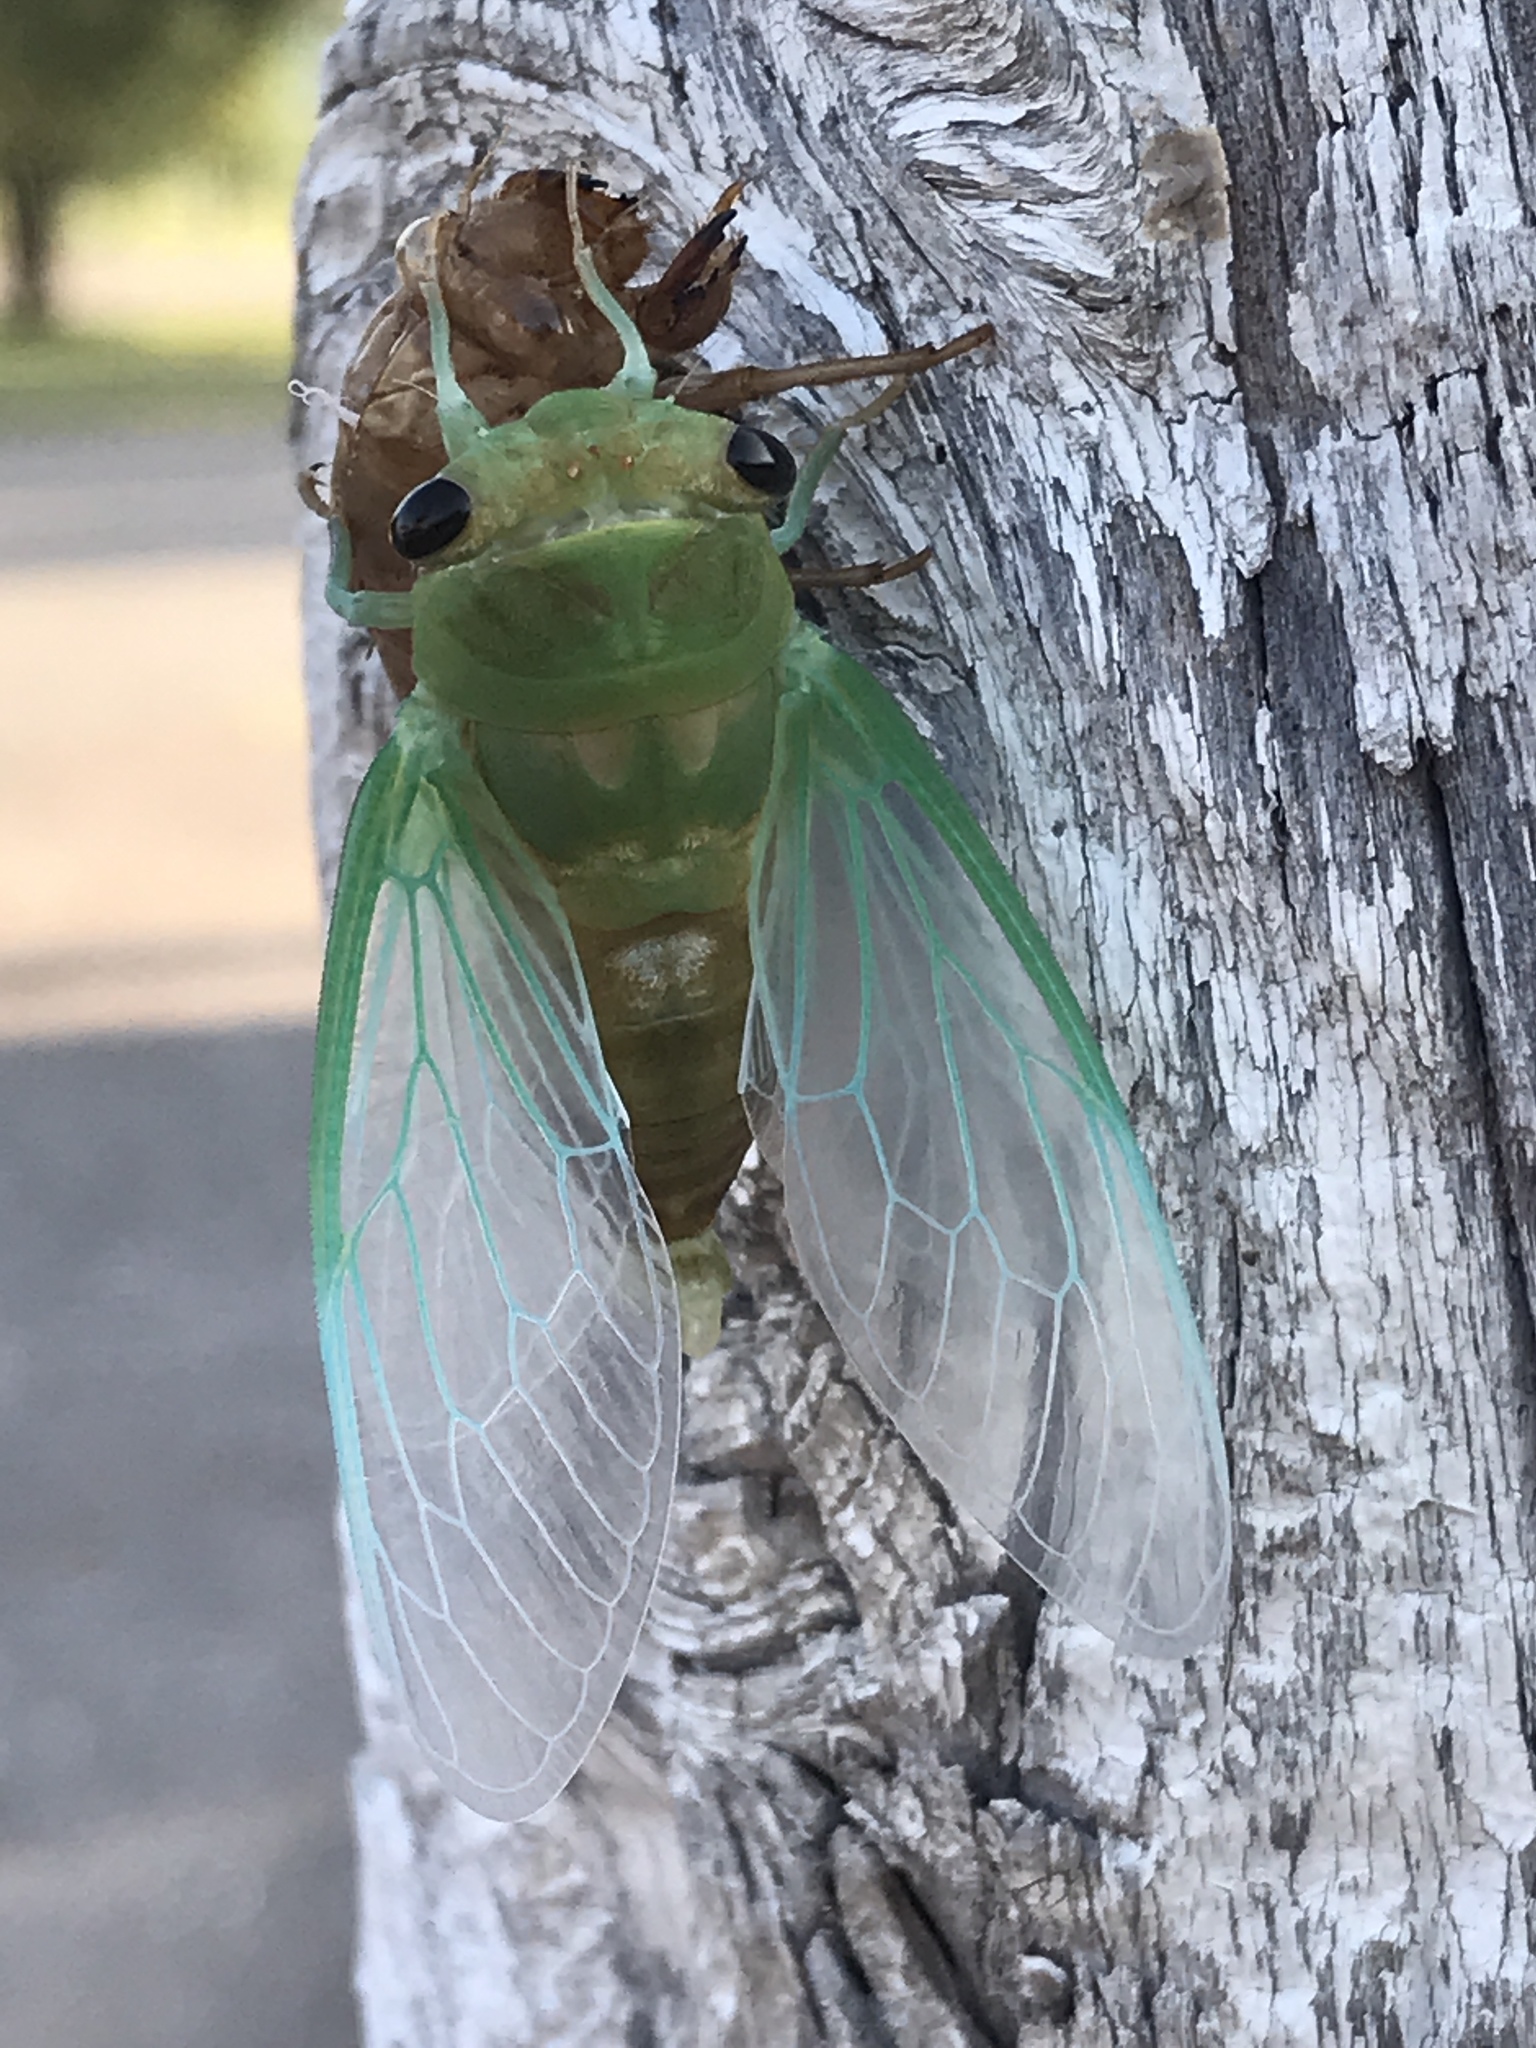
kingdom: Animalia
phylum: Arthropoda
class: Insecta
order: Hemiptera
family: Cicadidae
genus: Neotibicen
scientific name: Neotibicen superbus
